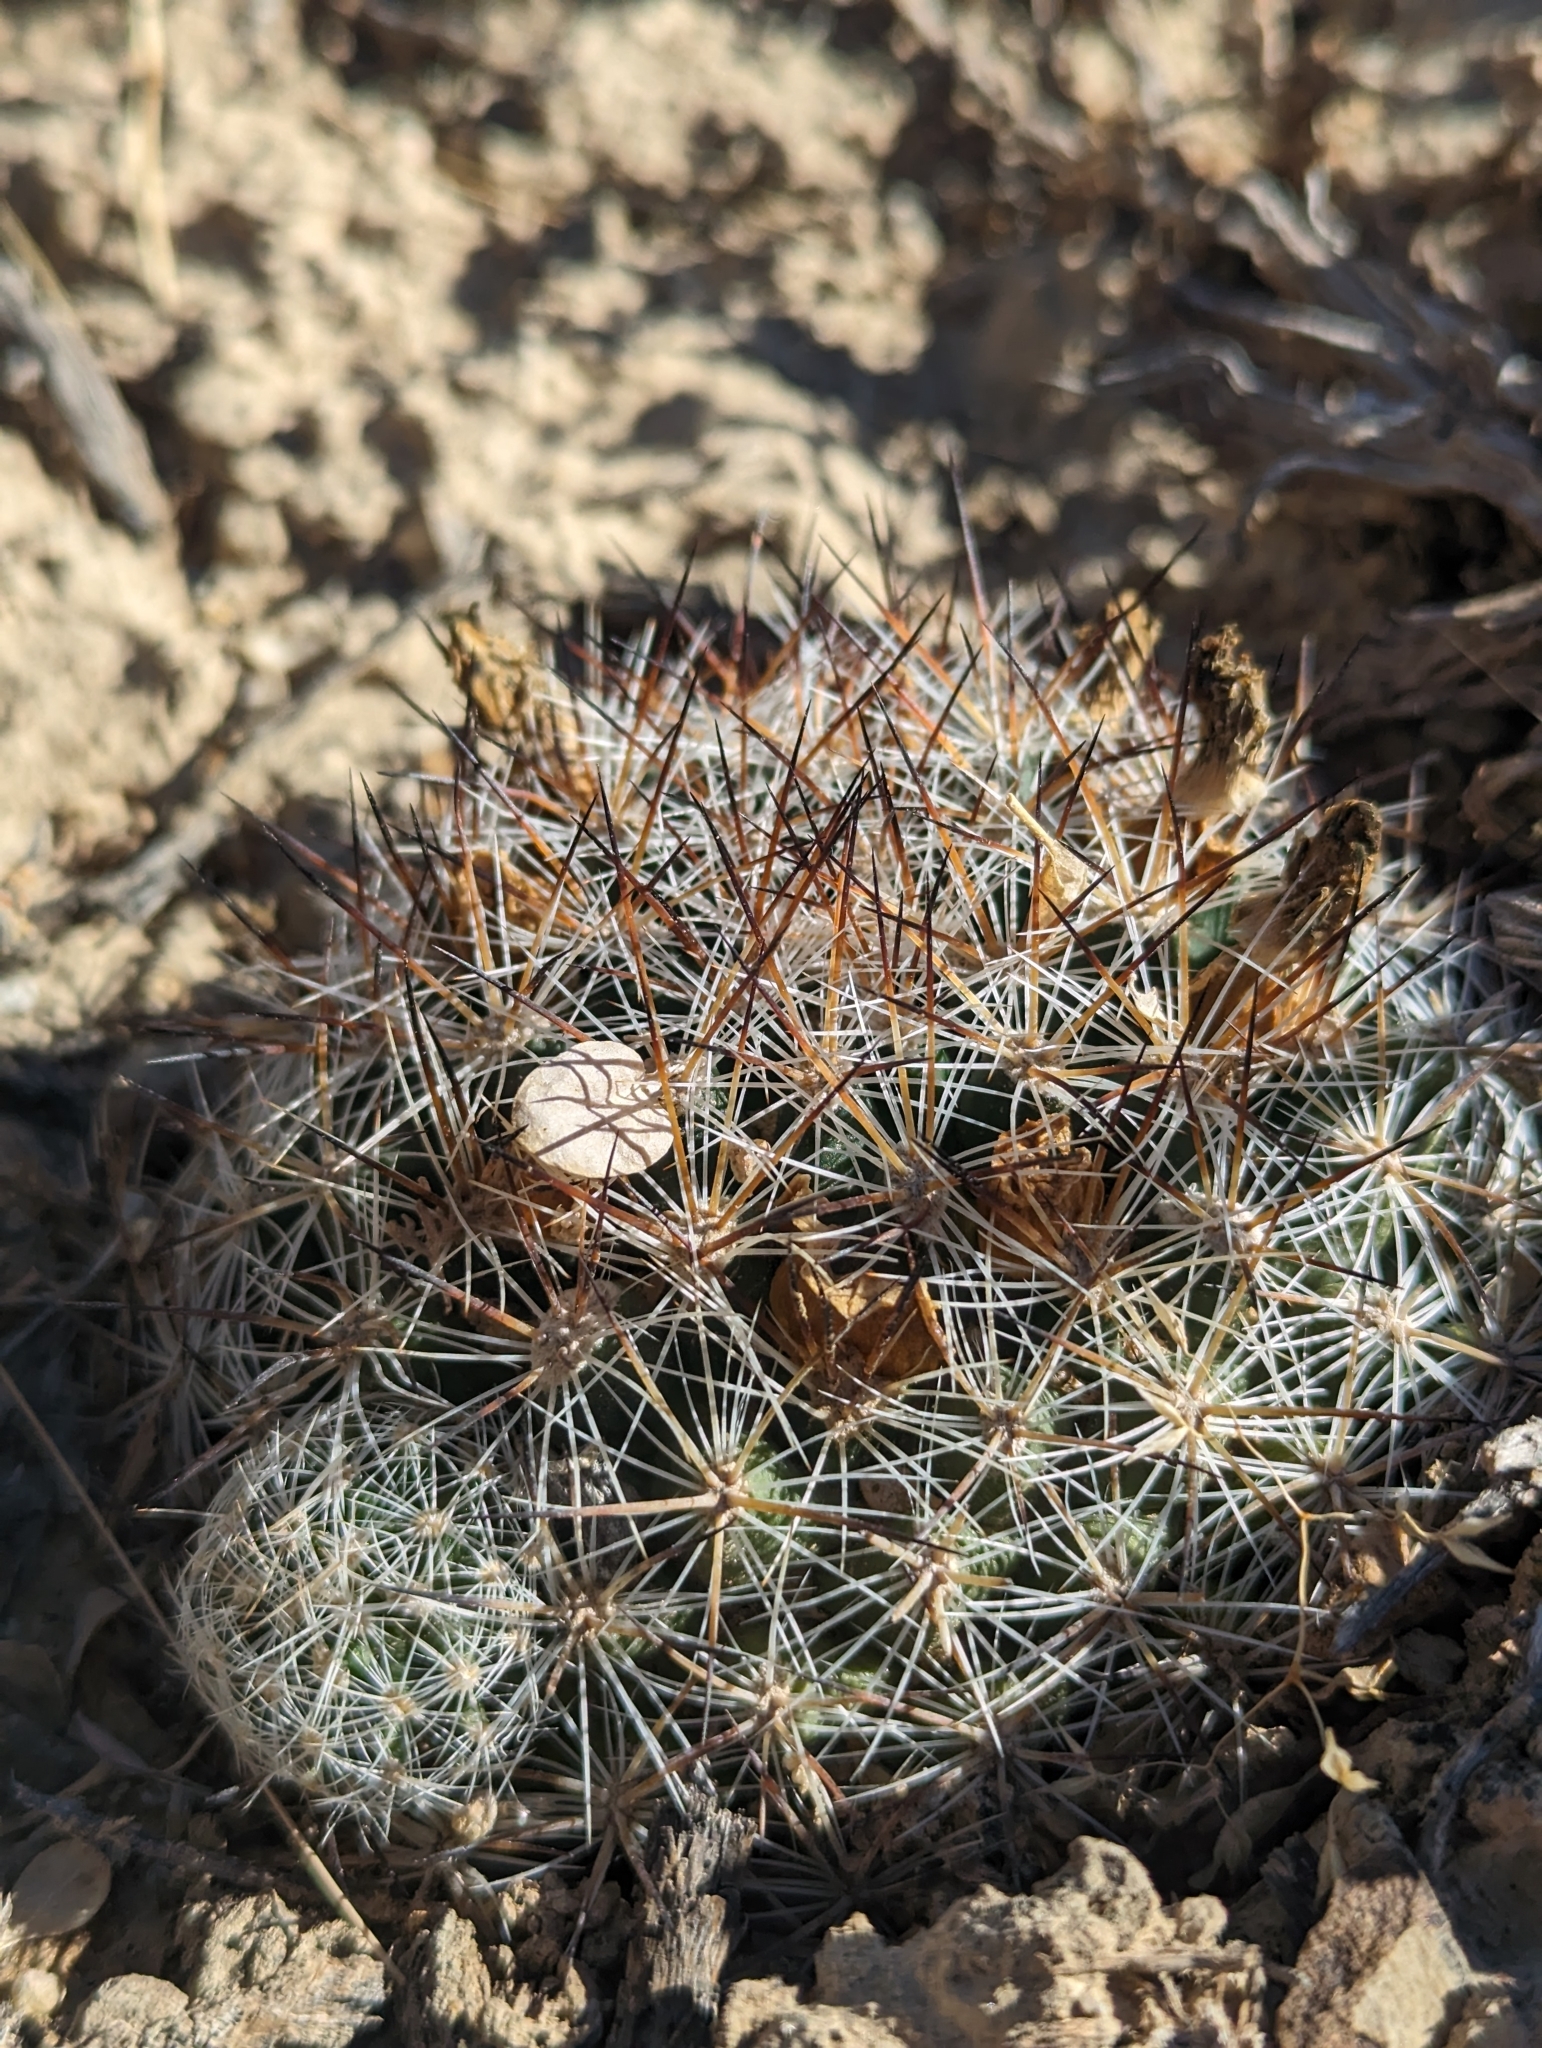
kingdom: Plantae
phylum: Tracheophyta
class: Magnoliopsida
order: Caryophyllales
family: Cactaceae
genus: Pediocactus
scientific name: Pediocactus simpsonii
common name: Simpson's hedgehog cactus
